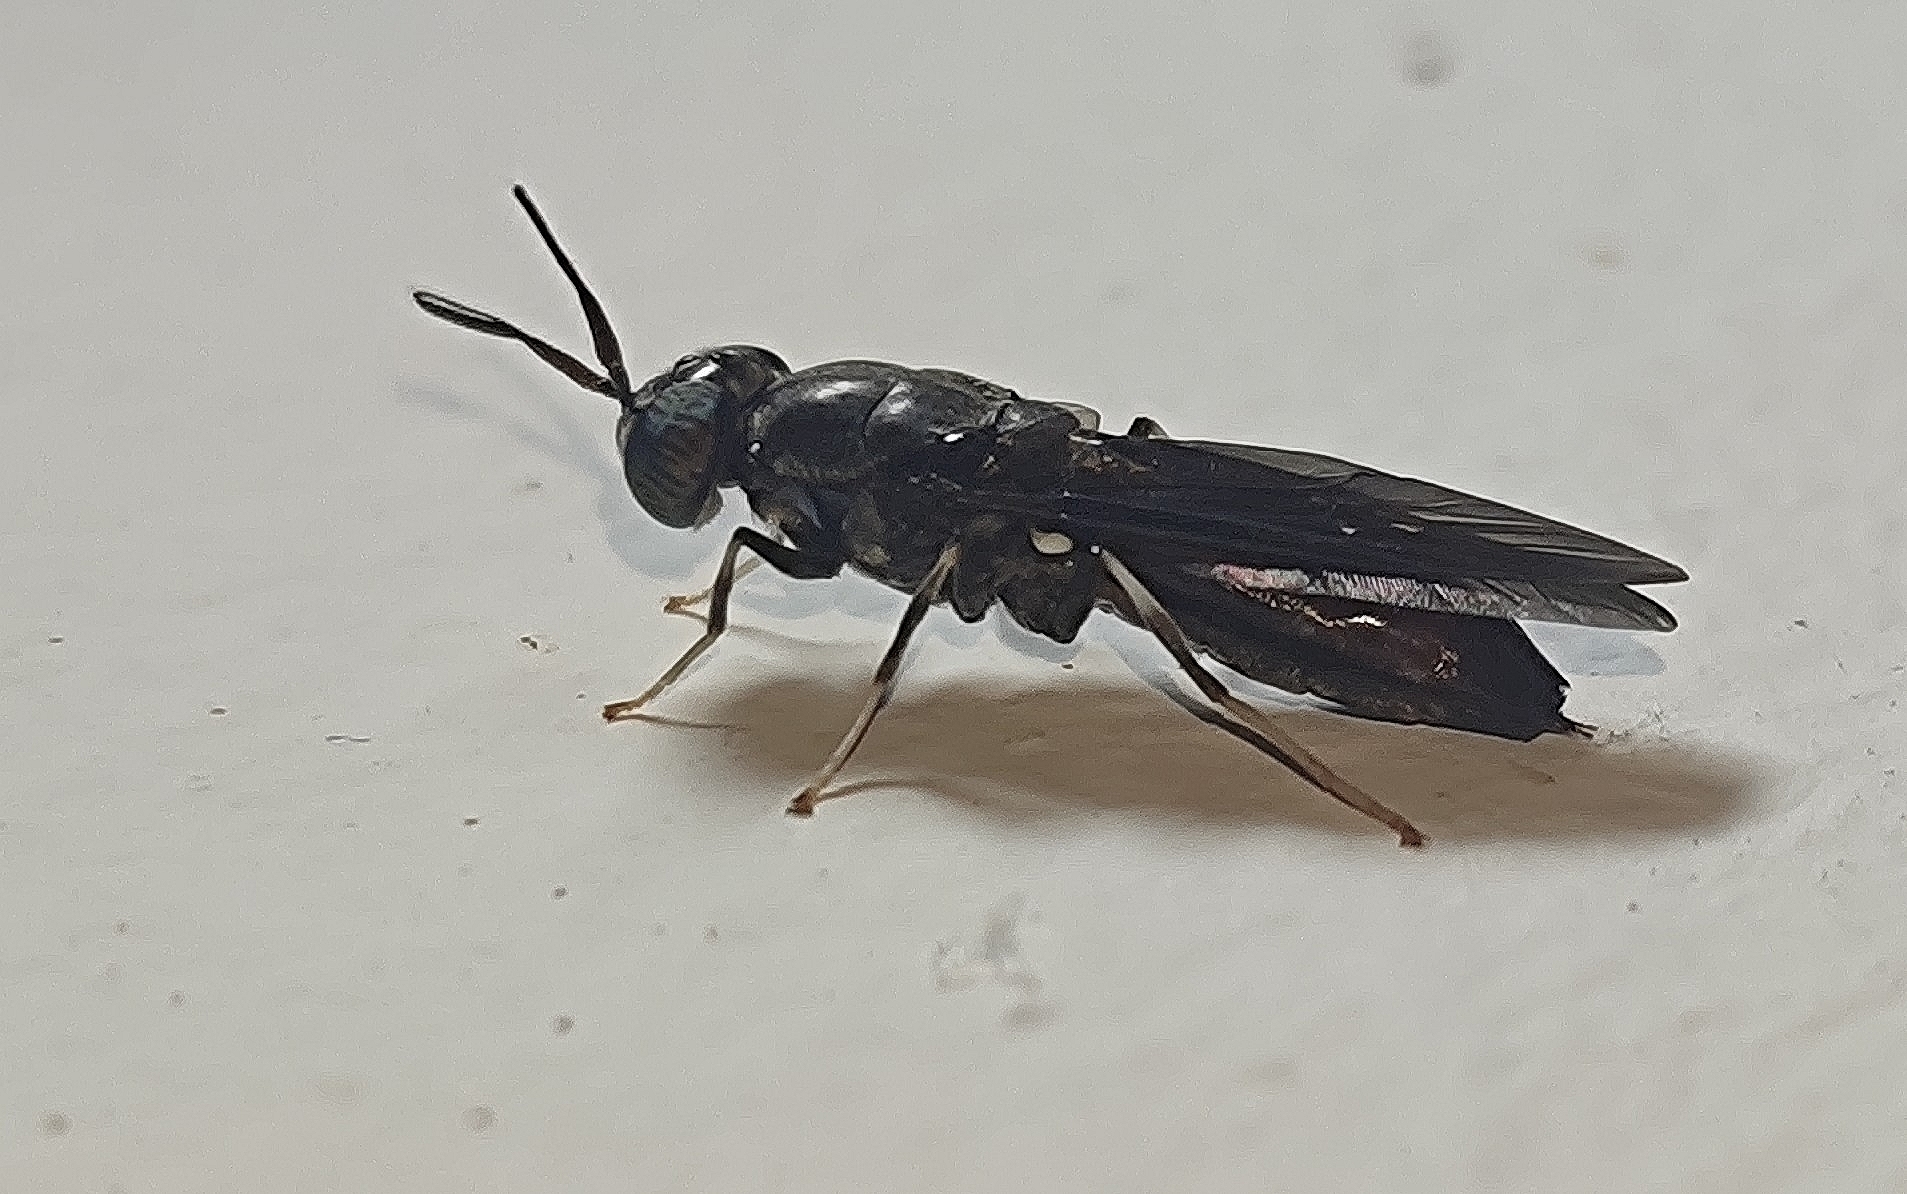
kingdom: Animalia
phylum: Arthropoda
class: Insecta
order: Diptera
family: Stratiomyidae
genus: Hermetia
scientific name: Hermetia illucens
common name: Black soldier fly
